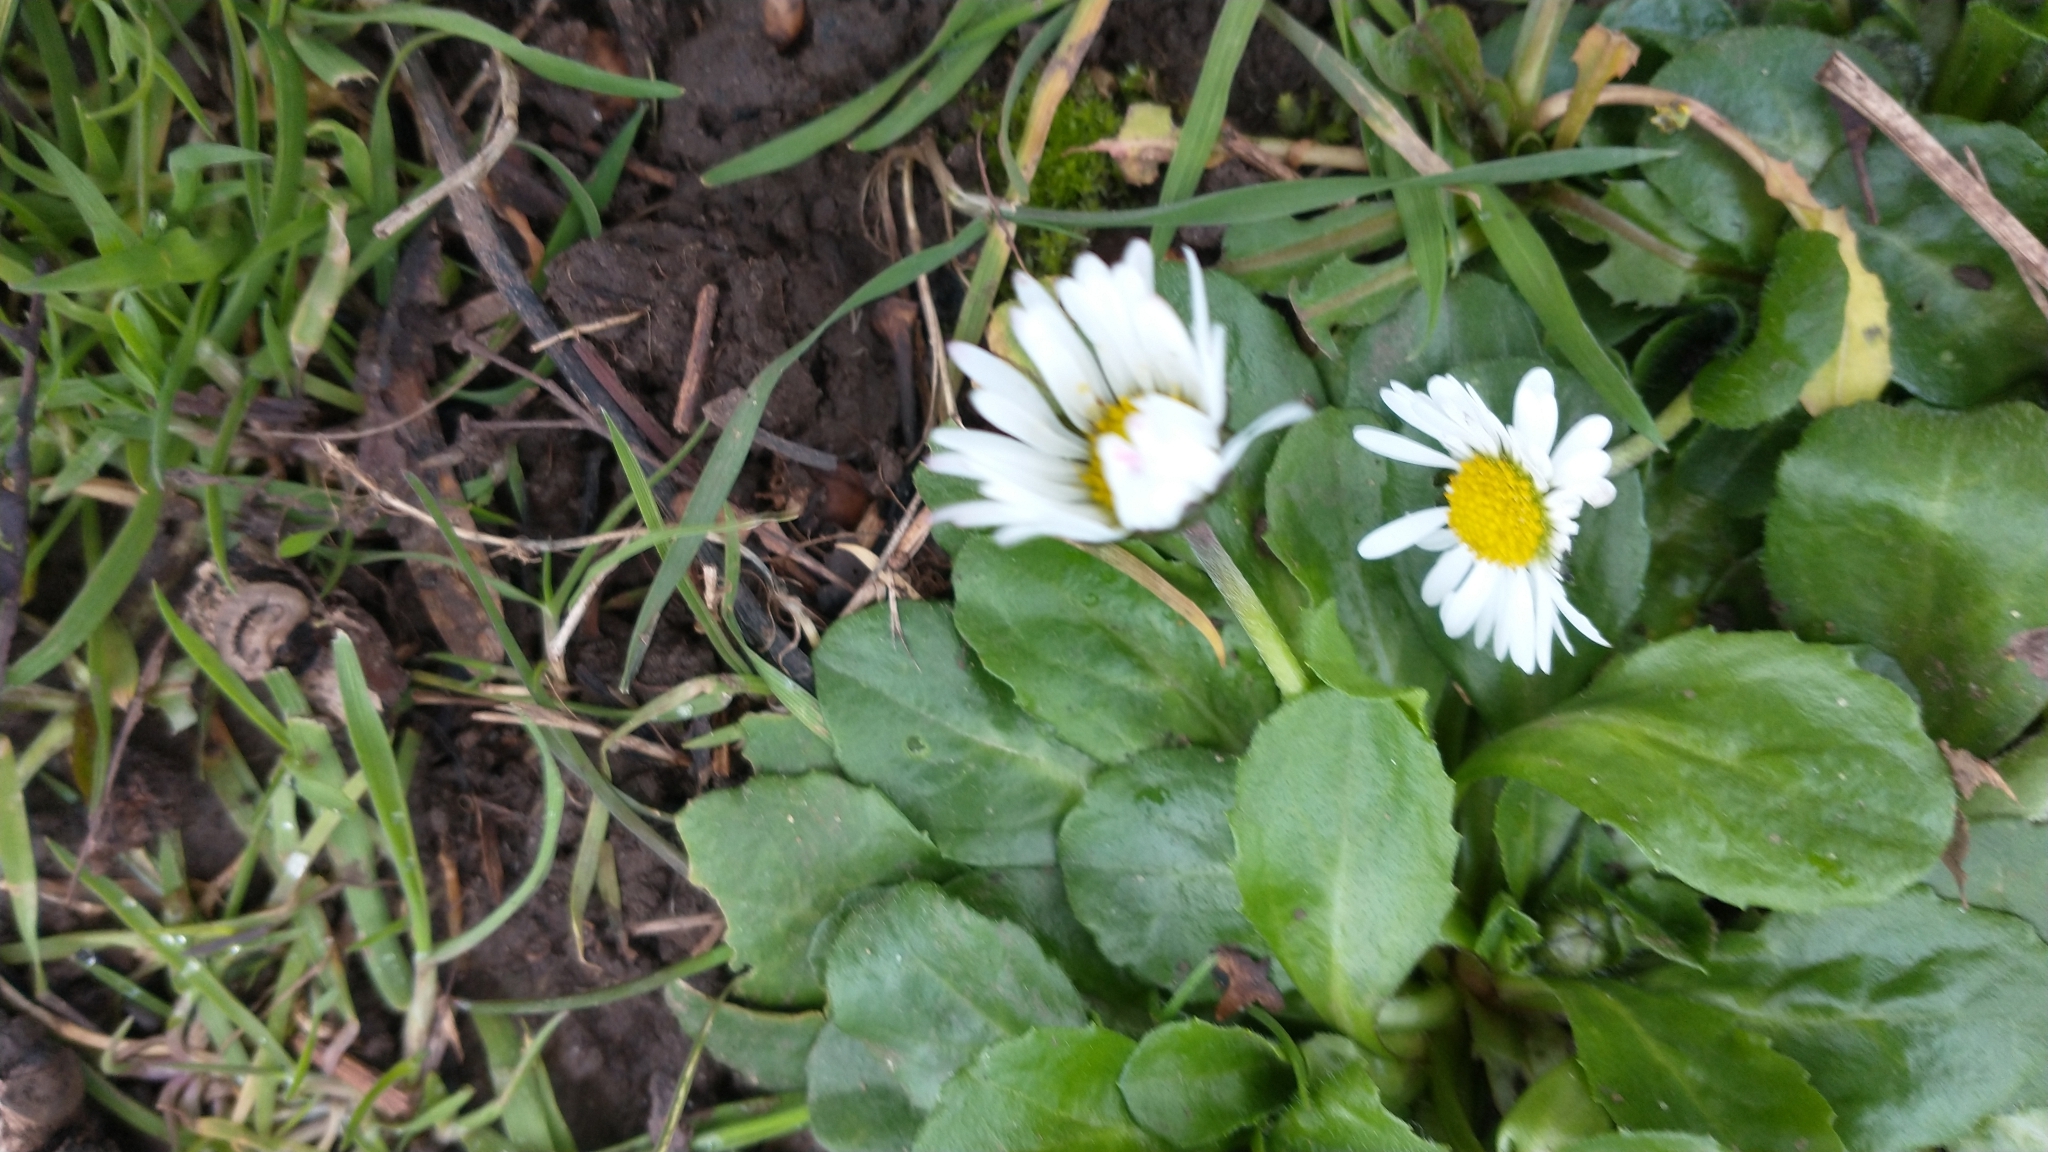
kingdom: Plantae
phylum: Tracheophyta
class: Magnoliopsida
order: Asterales
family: Asteraceae
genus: Bellis
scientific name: Bellis perennis
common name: Lawndaisy
